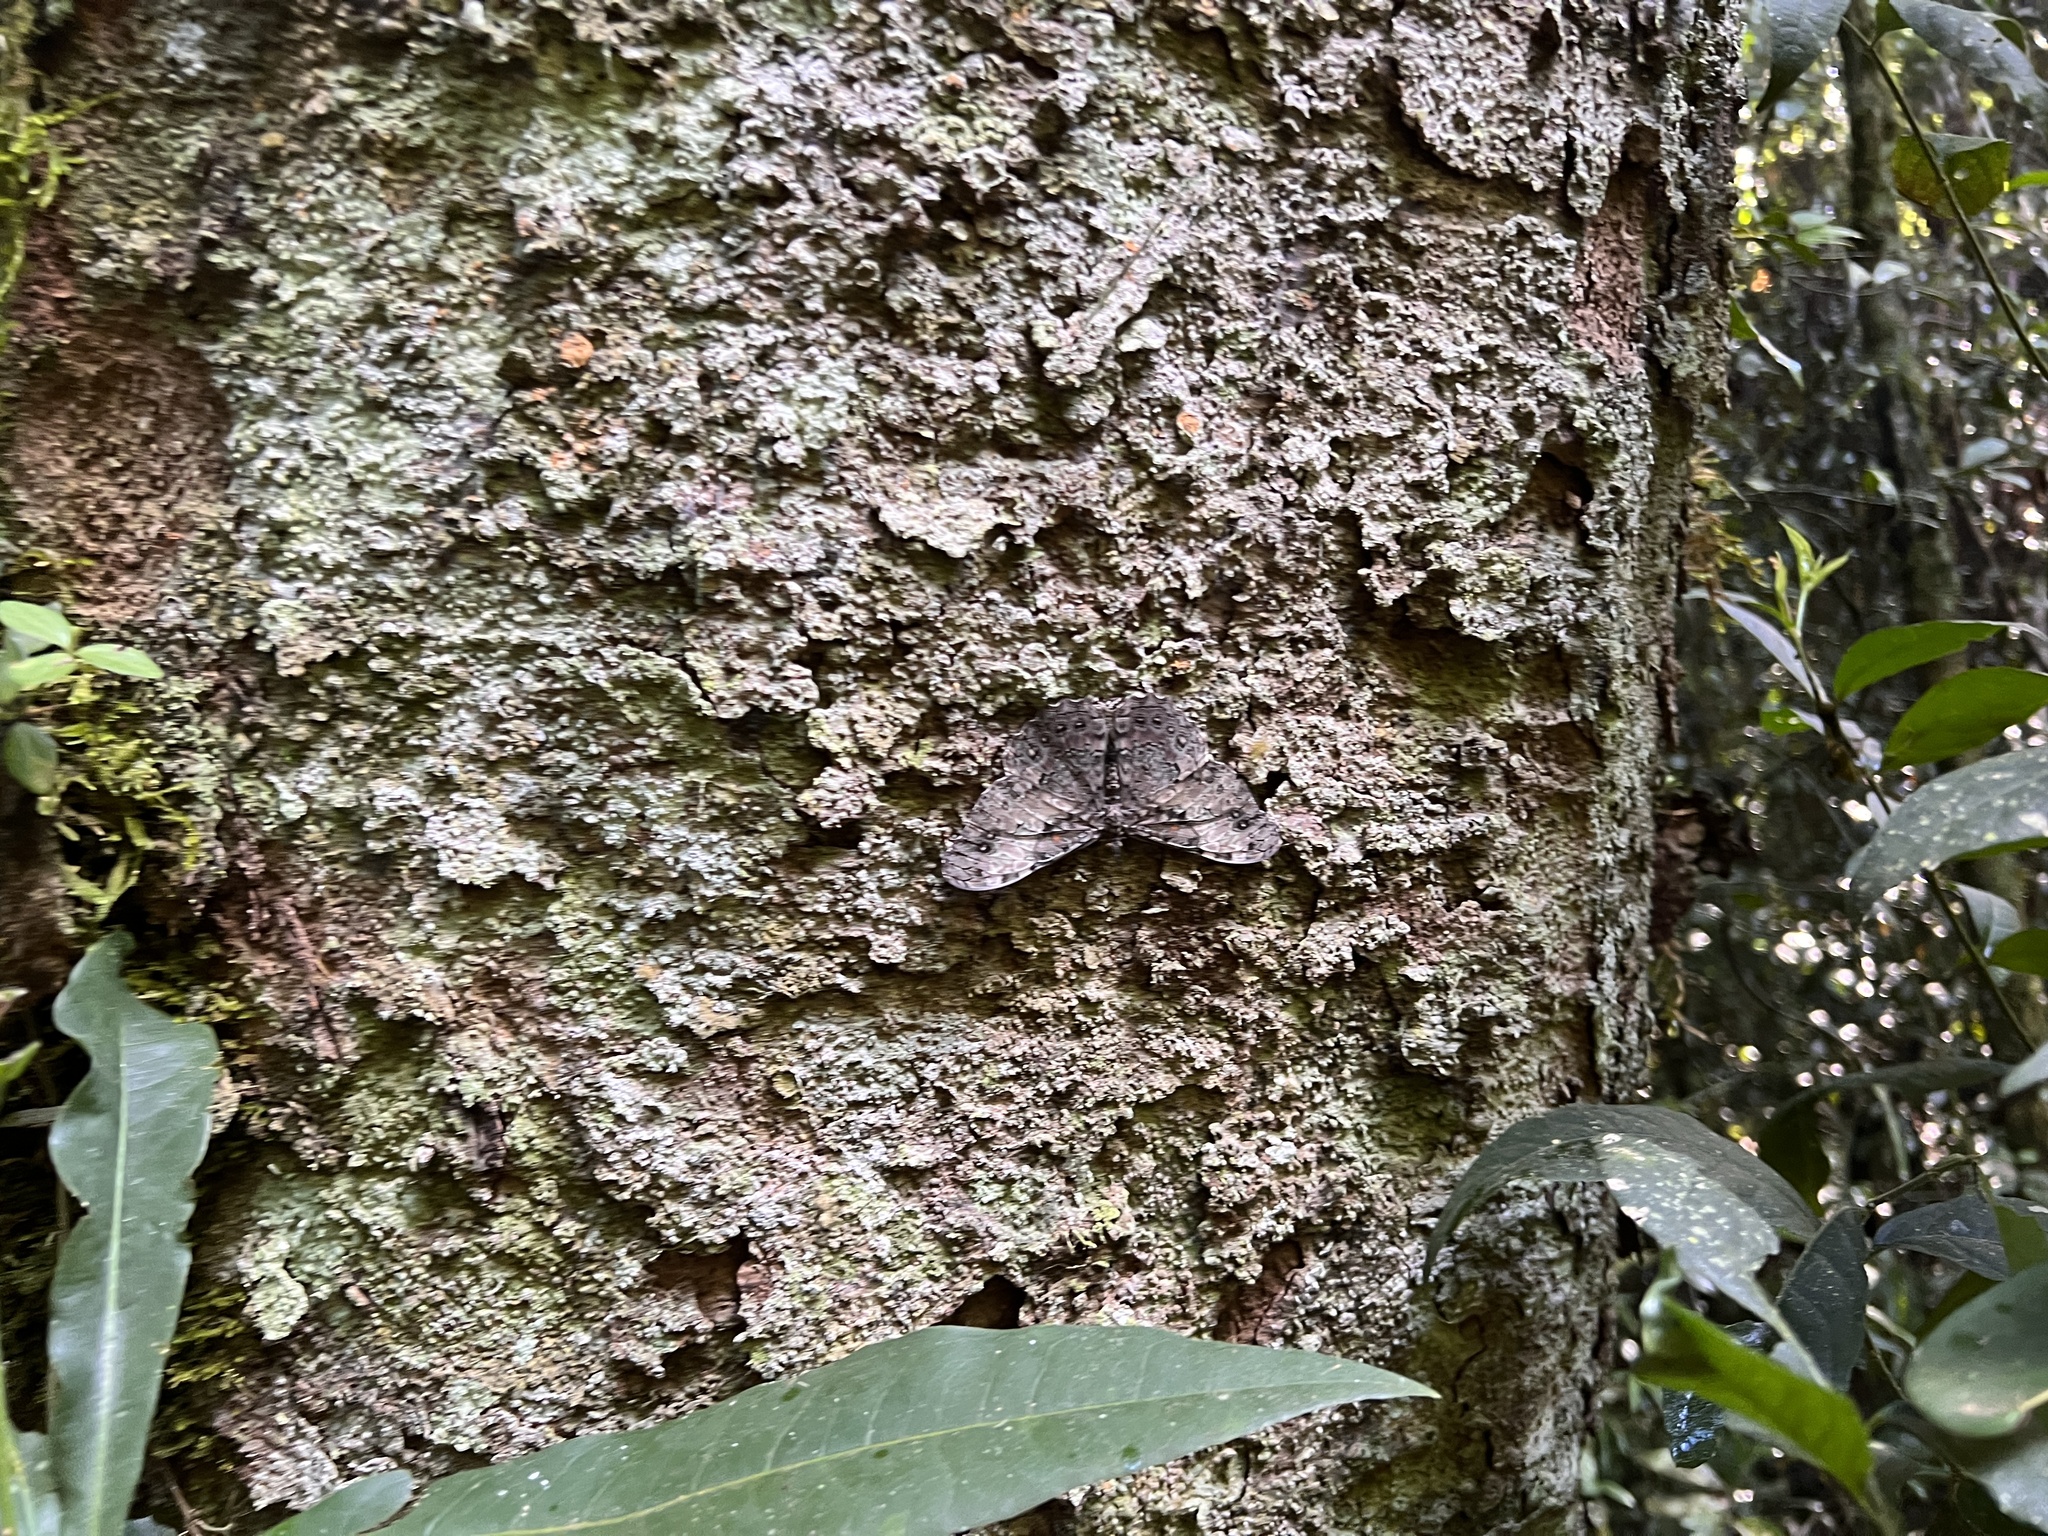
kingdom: Animalia
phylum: Arthropoda
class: Insecta
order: Lepidoptera
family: Nymphalidae
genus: Hamadryas
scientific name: Hamadryas epinome
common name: Epinome cracker
